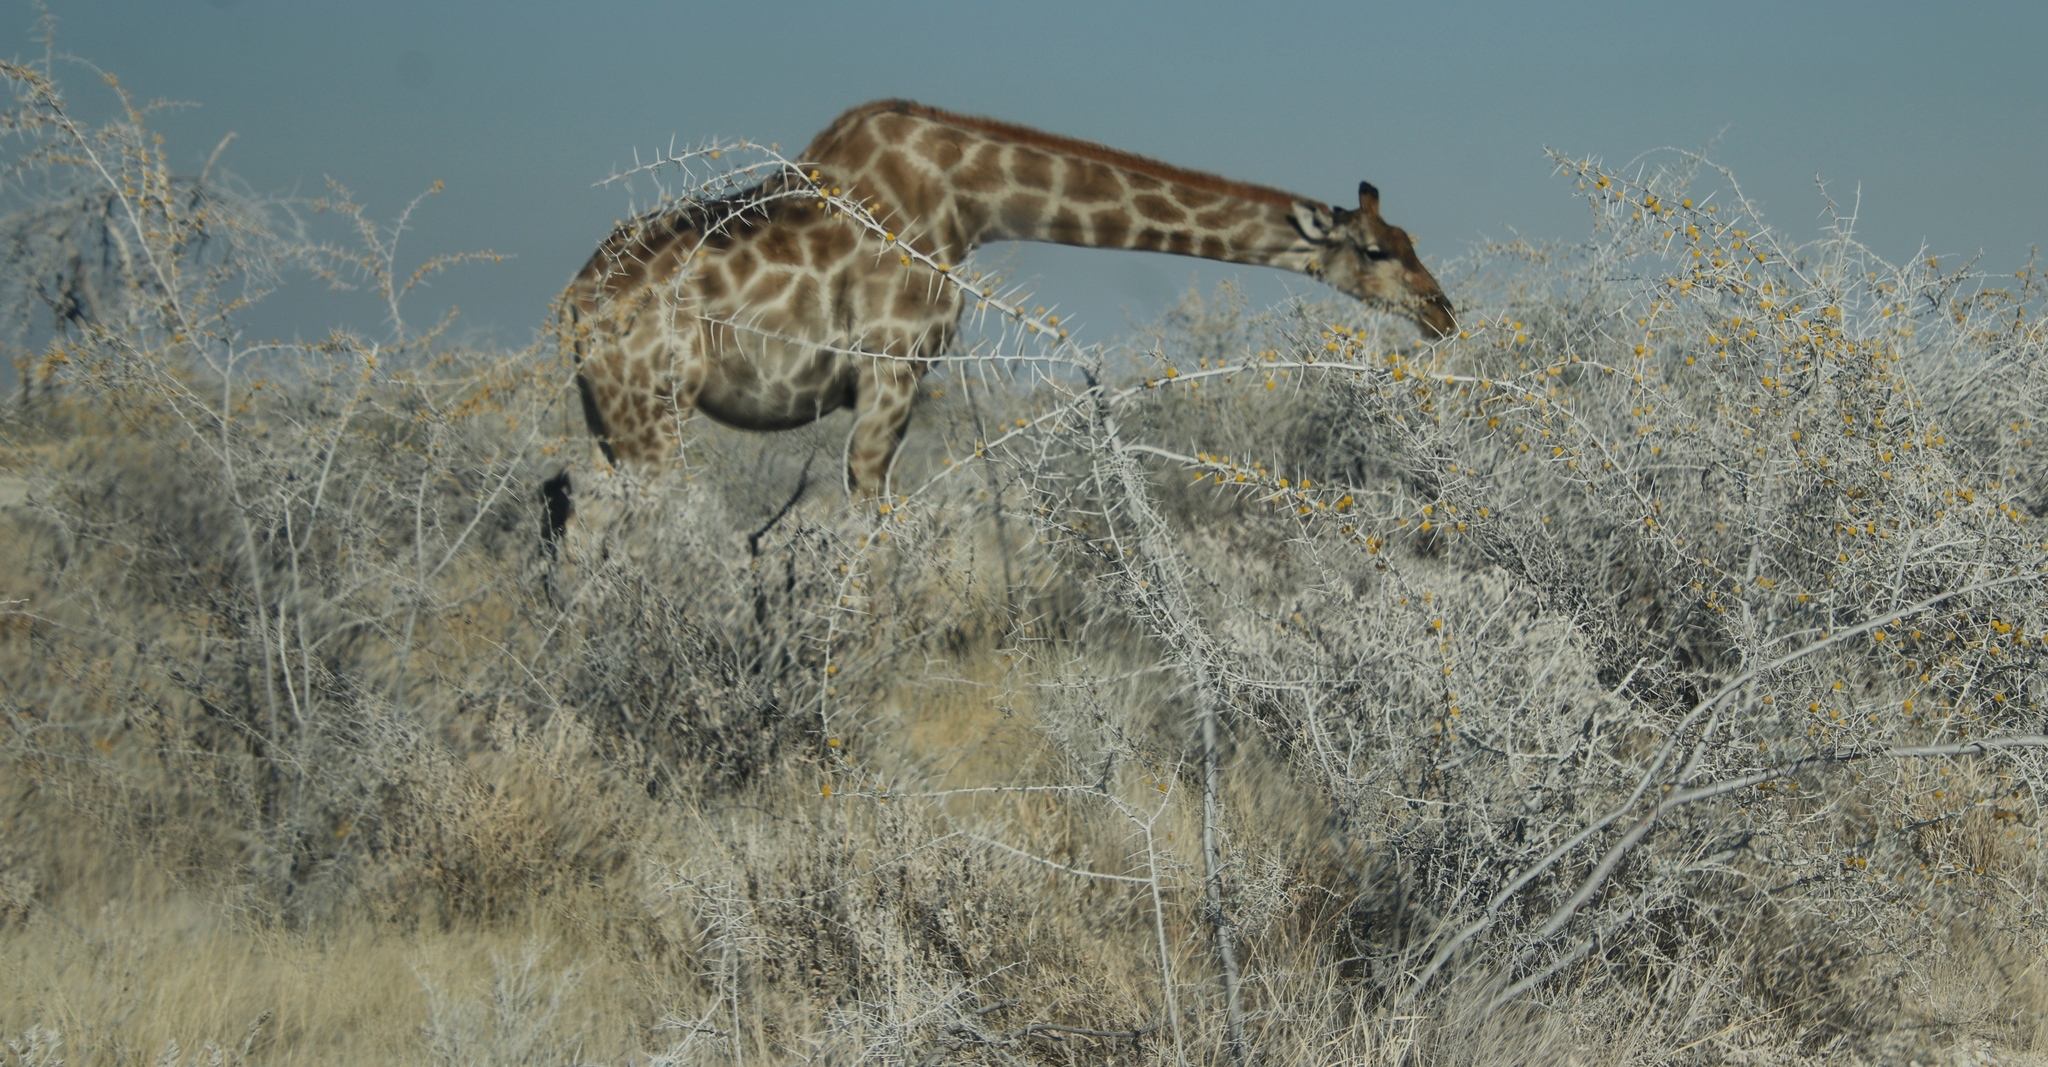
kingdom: Animalia
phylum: Chordata
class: Mammalia
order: Artiodactyla
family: Giraffidae
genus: Giraffa
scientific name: Giraffa giraffa
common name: Southern giraffe
